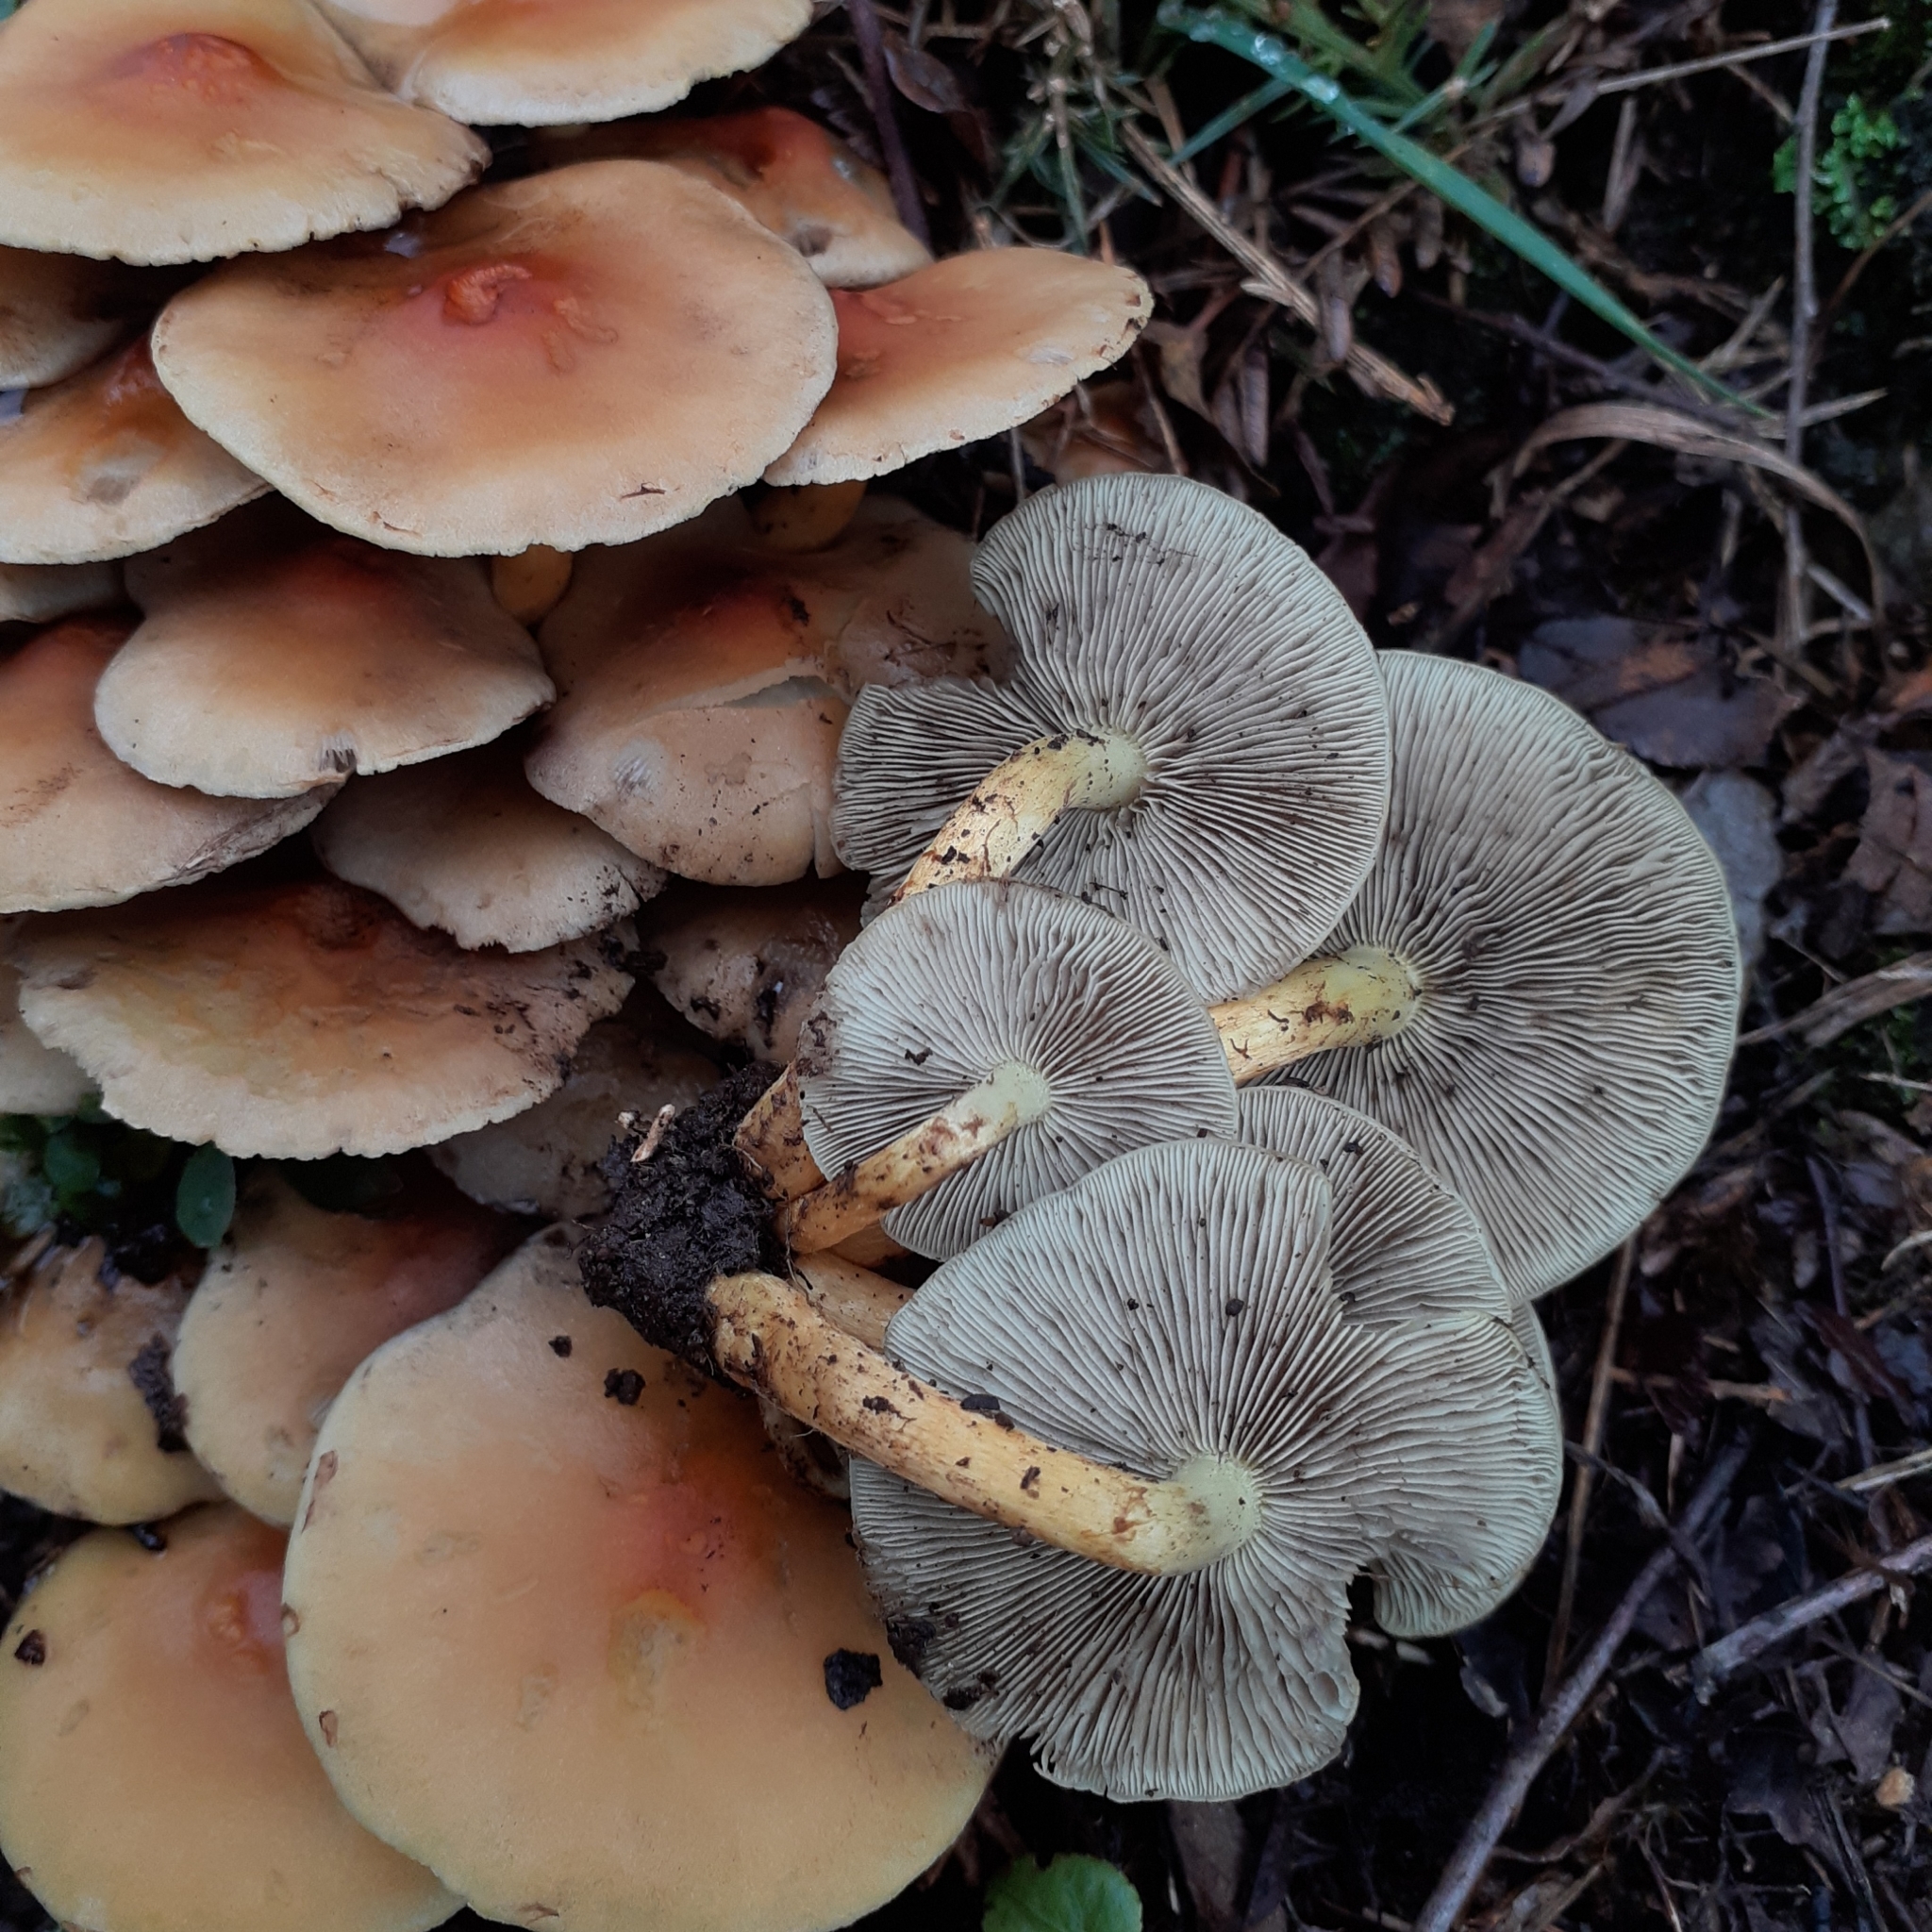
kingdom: Fungi
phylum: Basidiomycota
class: Agaricomycetes
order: Agaricales
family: Strophariaceae
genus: Hypholoma
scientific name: Hypholoma fasciculare
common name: Sulphur tuft
